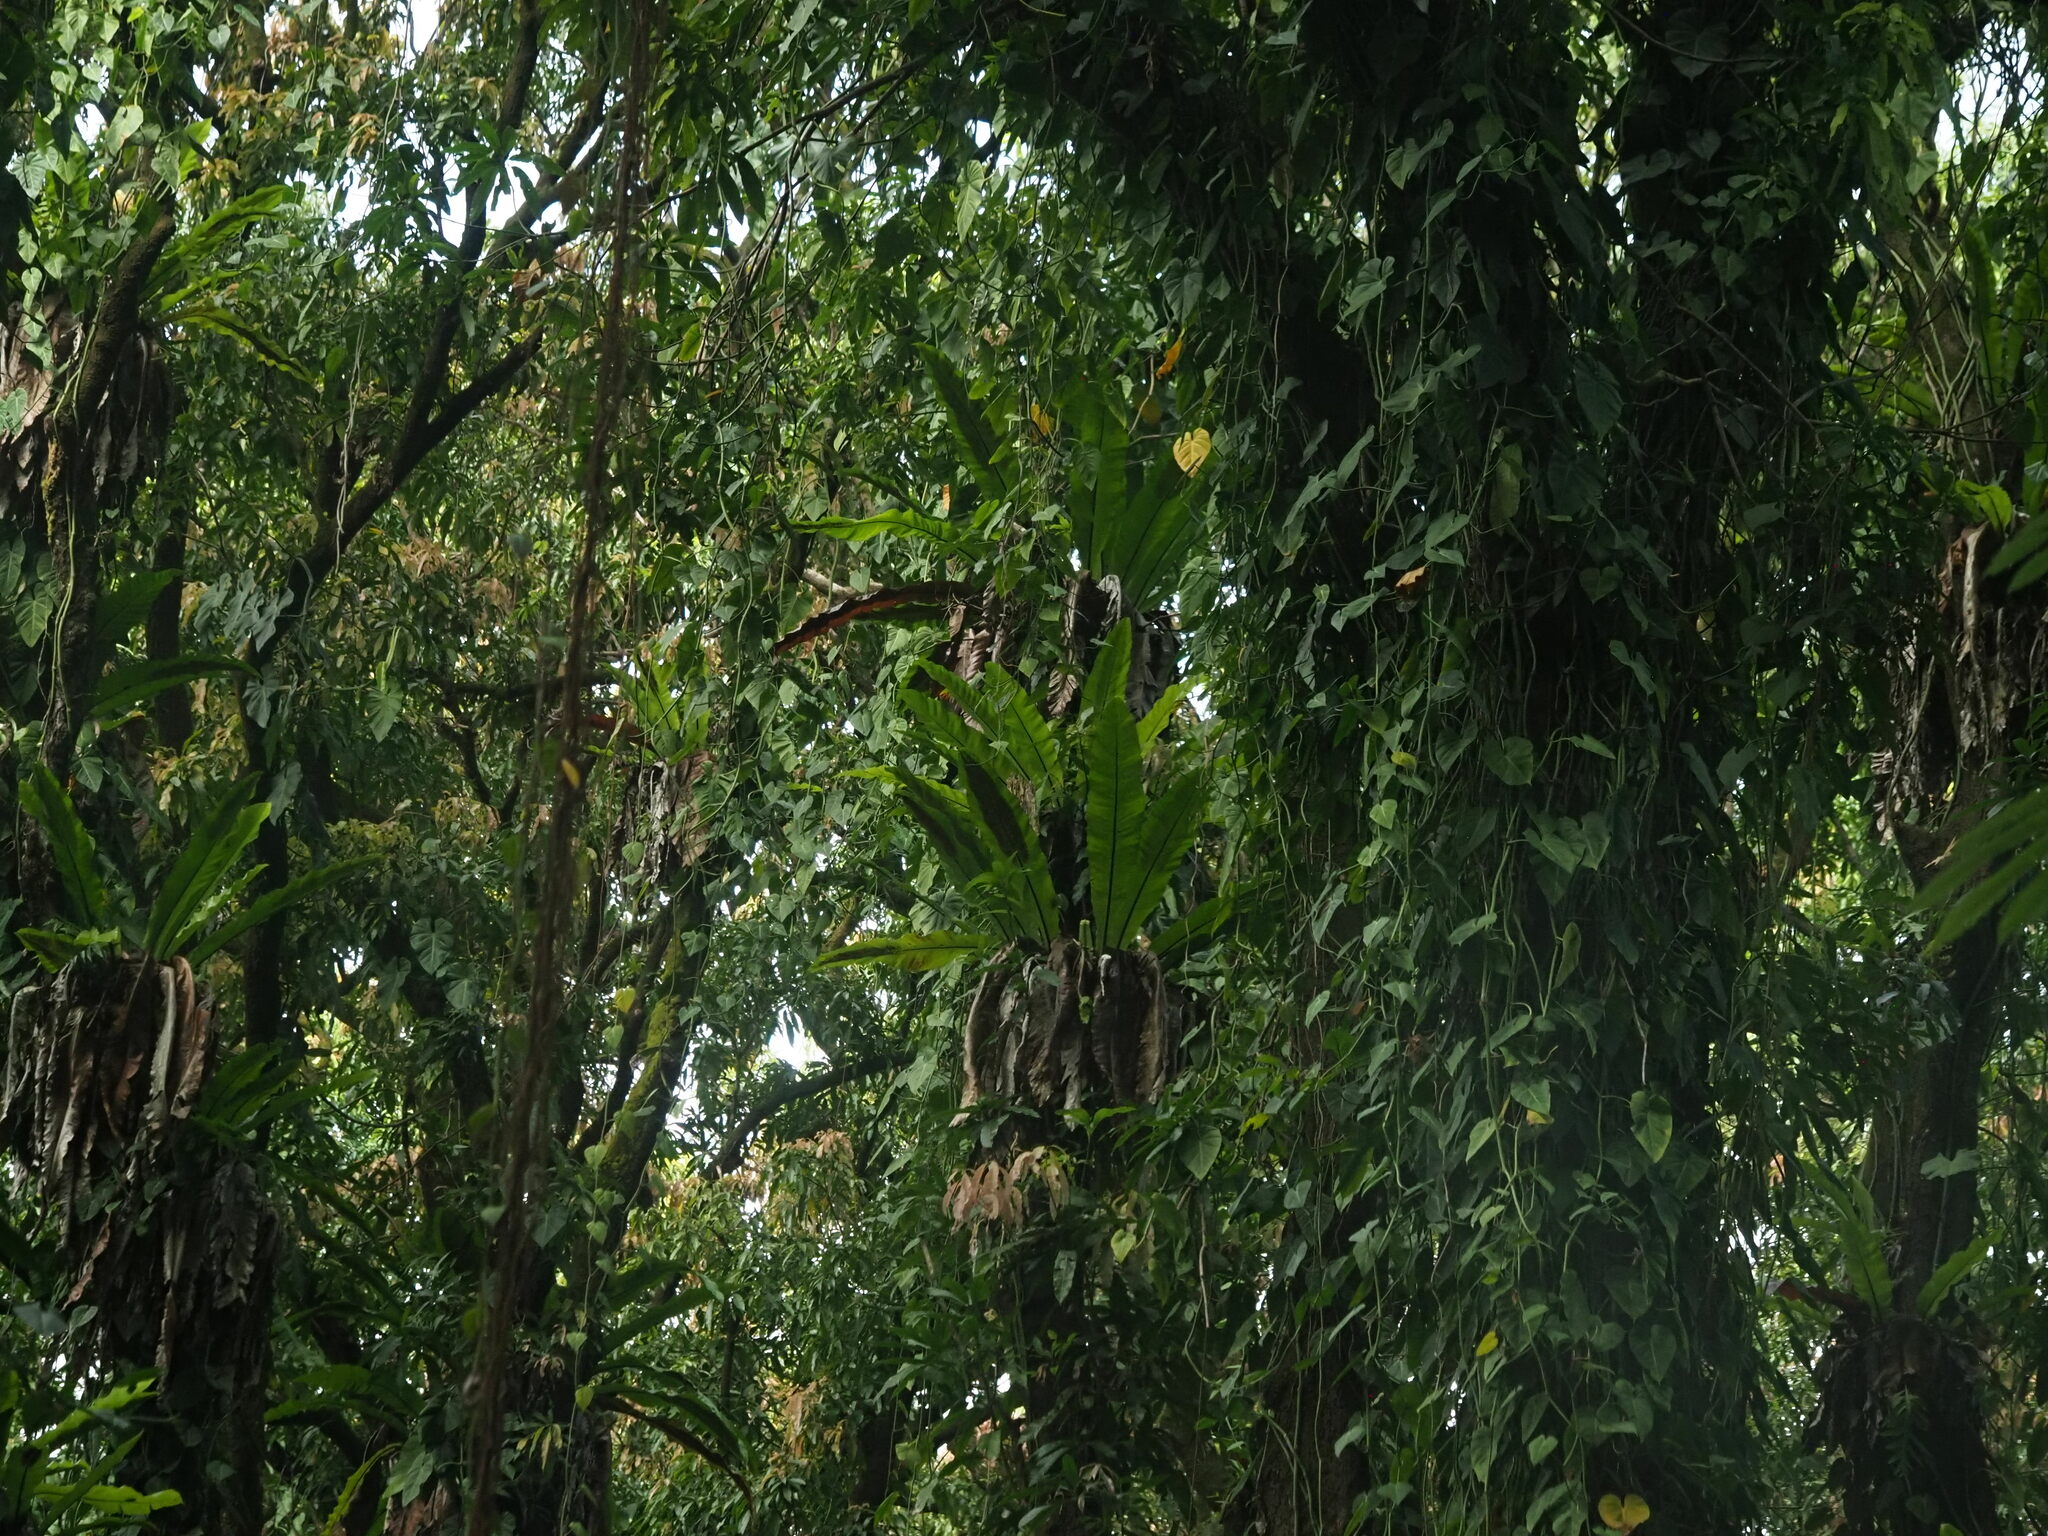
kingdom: Plantae
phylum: Tracheophyta
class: Polypodiopsida
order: Polypodiales
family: Aspleniaceae
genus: Asplenium
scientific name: Asplenium nidus
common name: Bird's-nest fern
